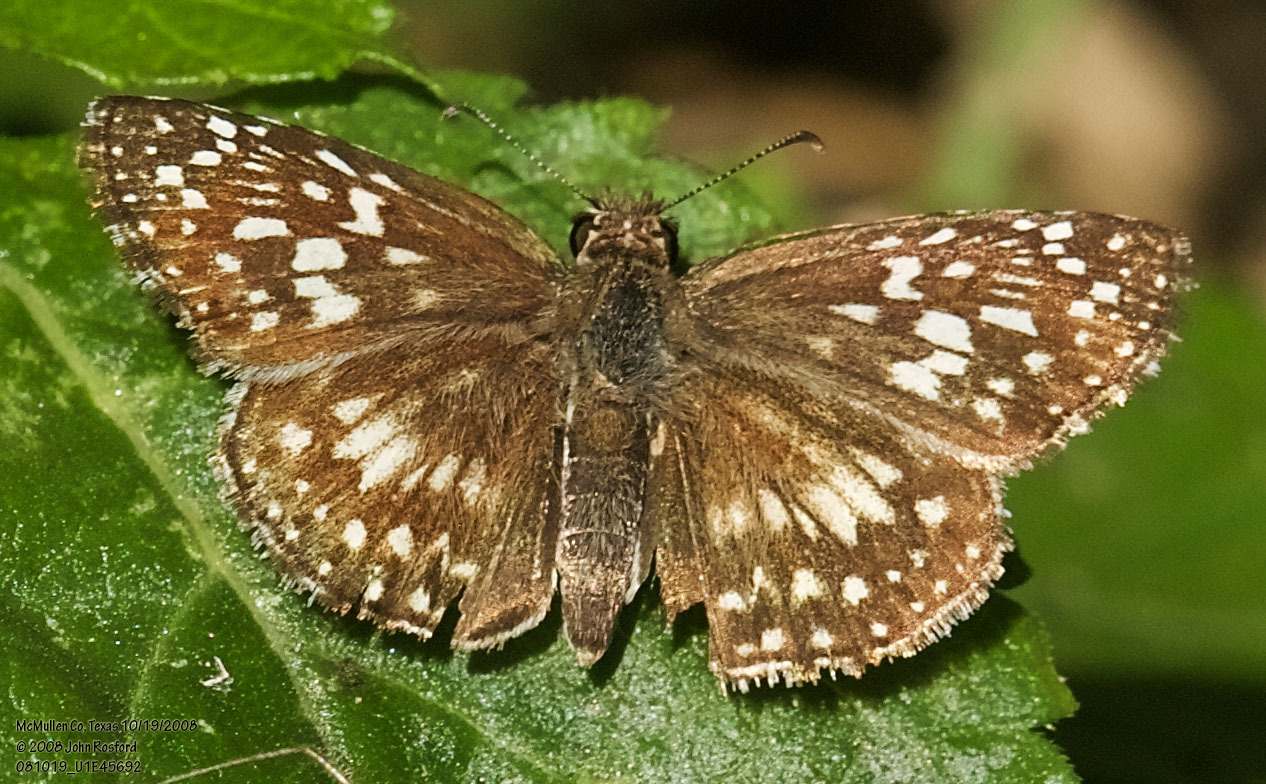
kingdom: Animalia
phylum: Arthropoda
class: Insecta
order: Lepidoptera
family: Hesperiidae
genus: Pyrgus
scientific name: Pyrgus oileus
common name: Tropical checkered-skipper
